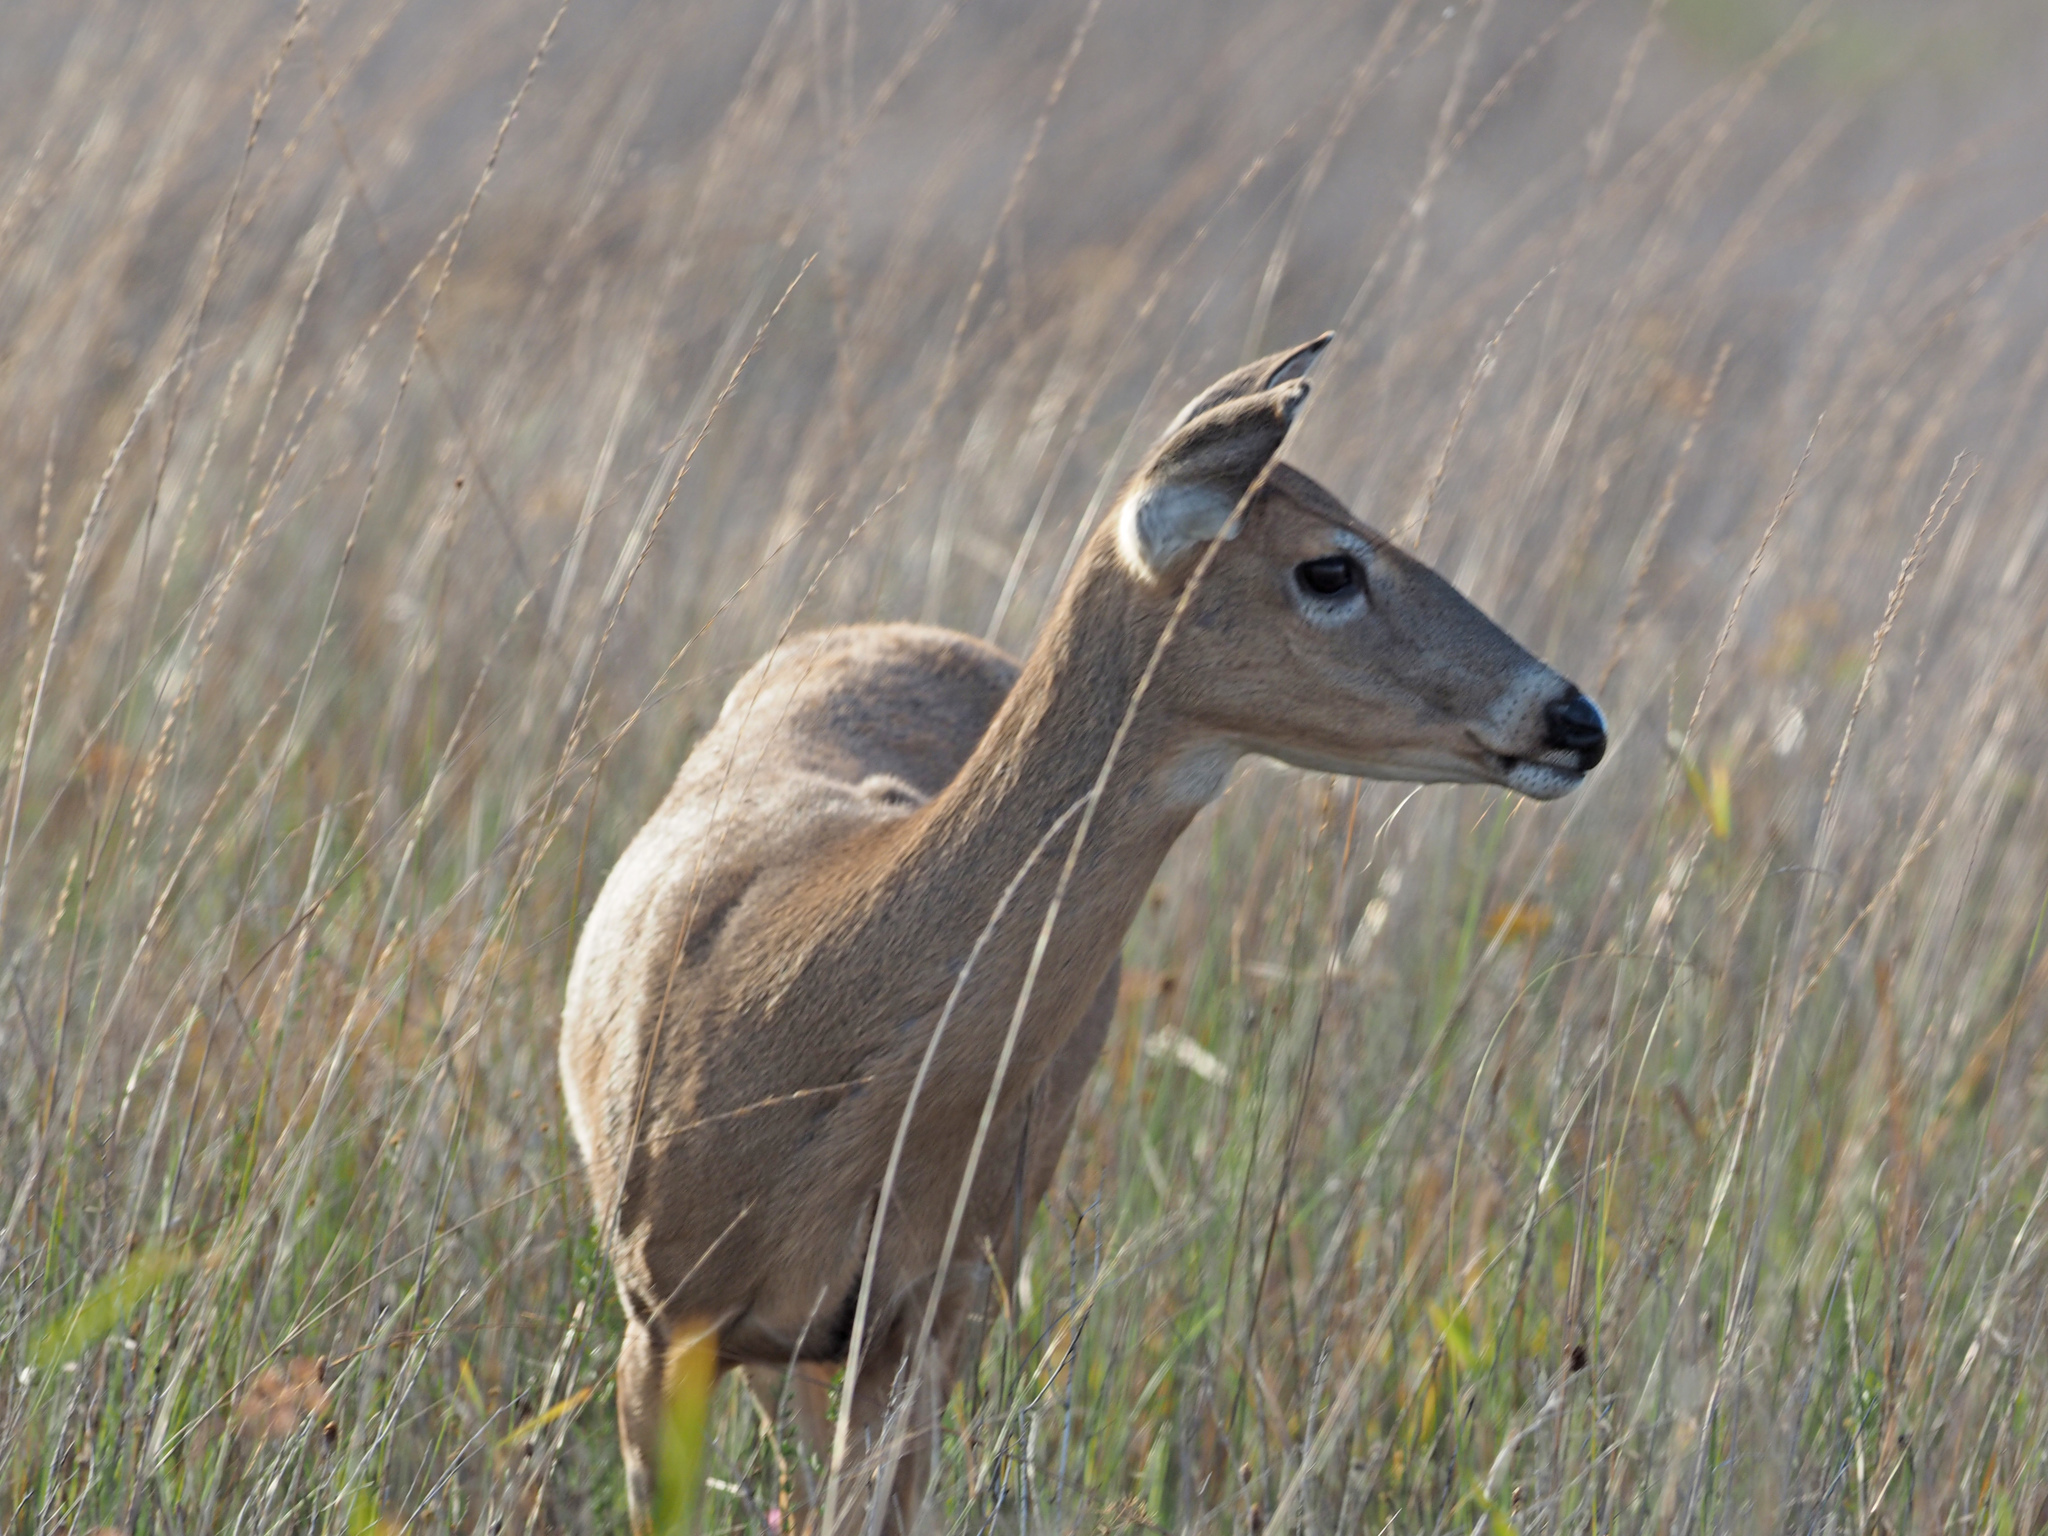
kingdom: Animalia
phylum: Chordata
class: Mammalia
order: Artiodactyla
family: Cervidae
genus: Odocoileus
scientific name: Odocoileus virginianus
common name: White-tailed deer
